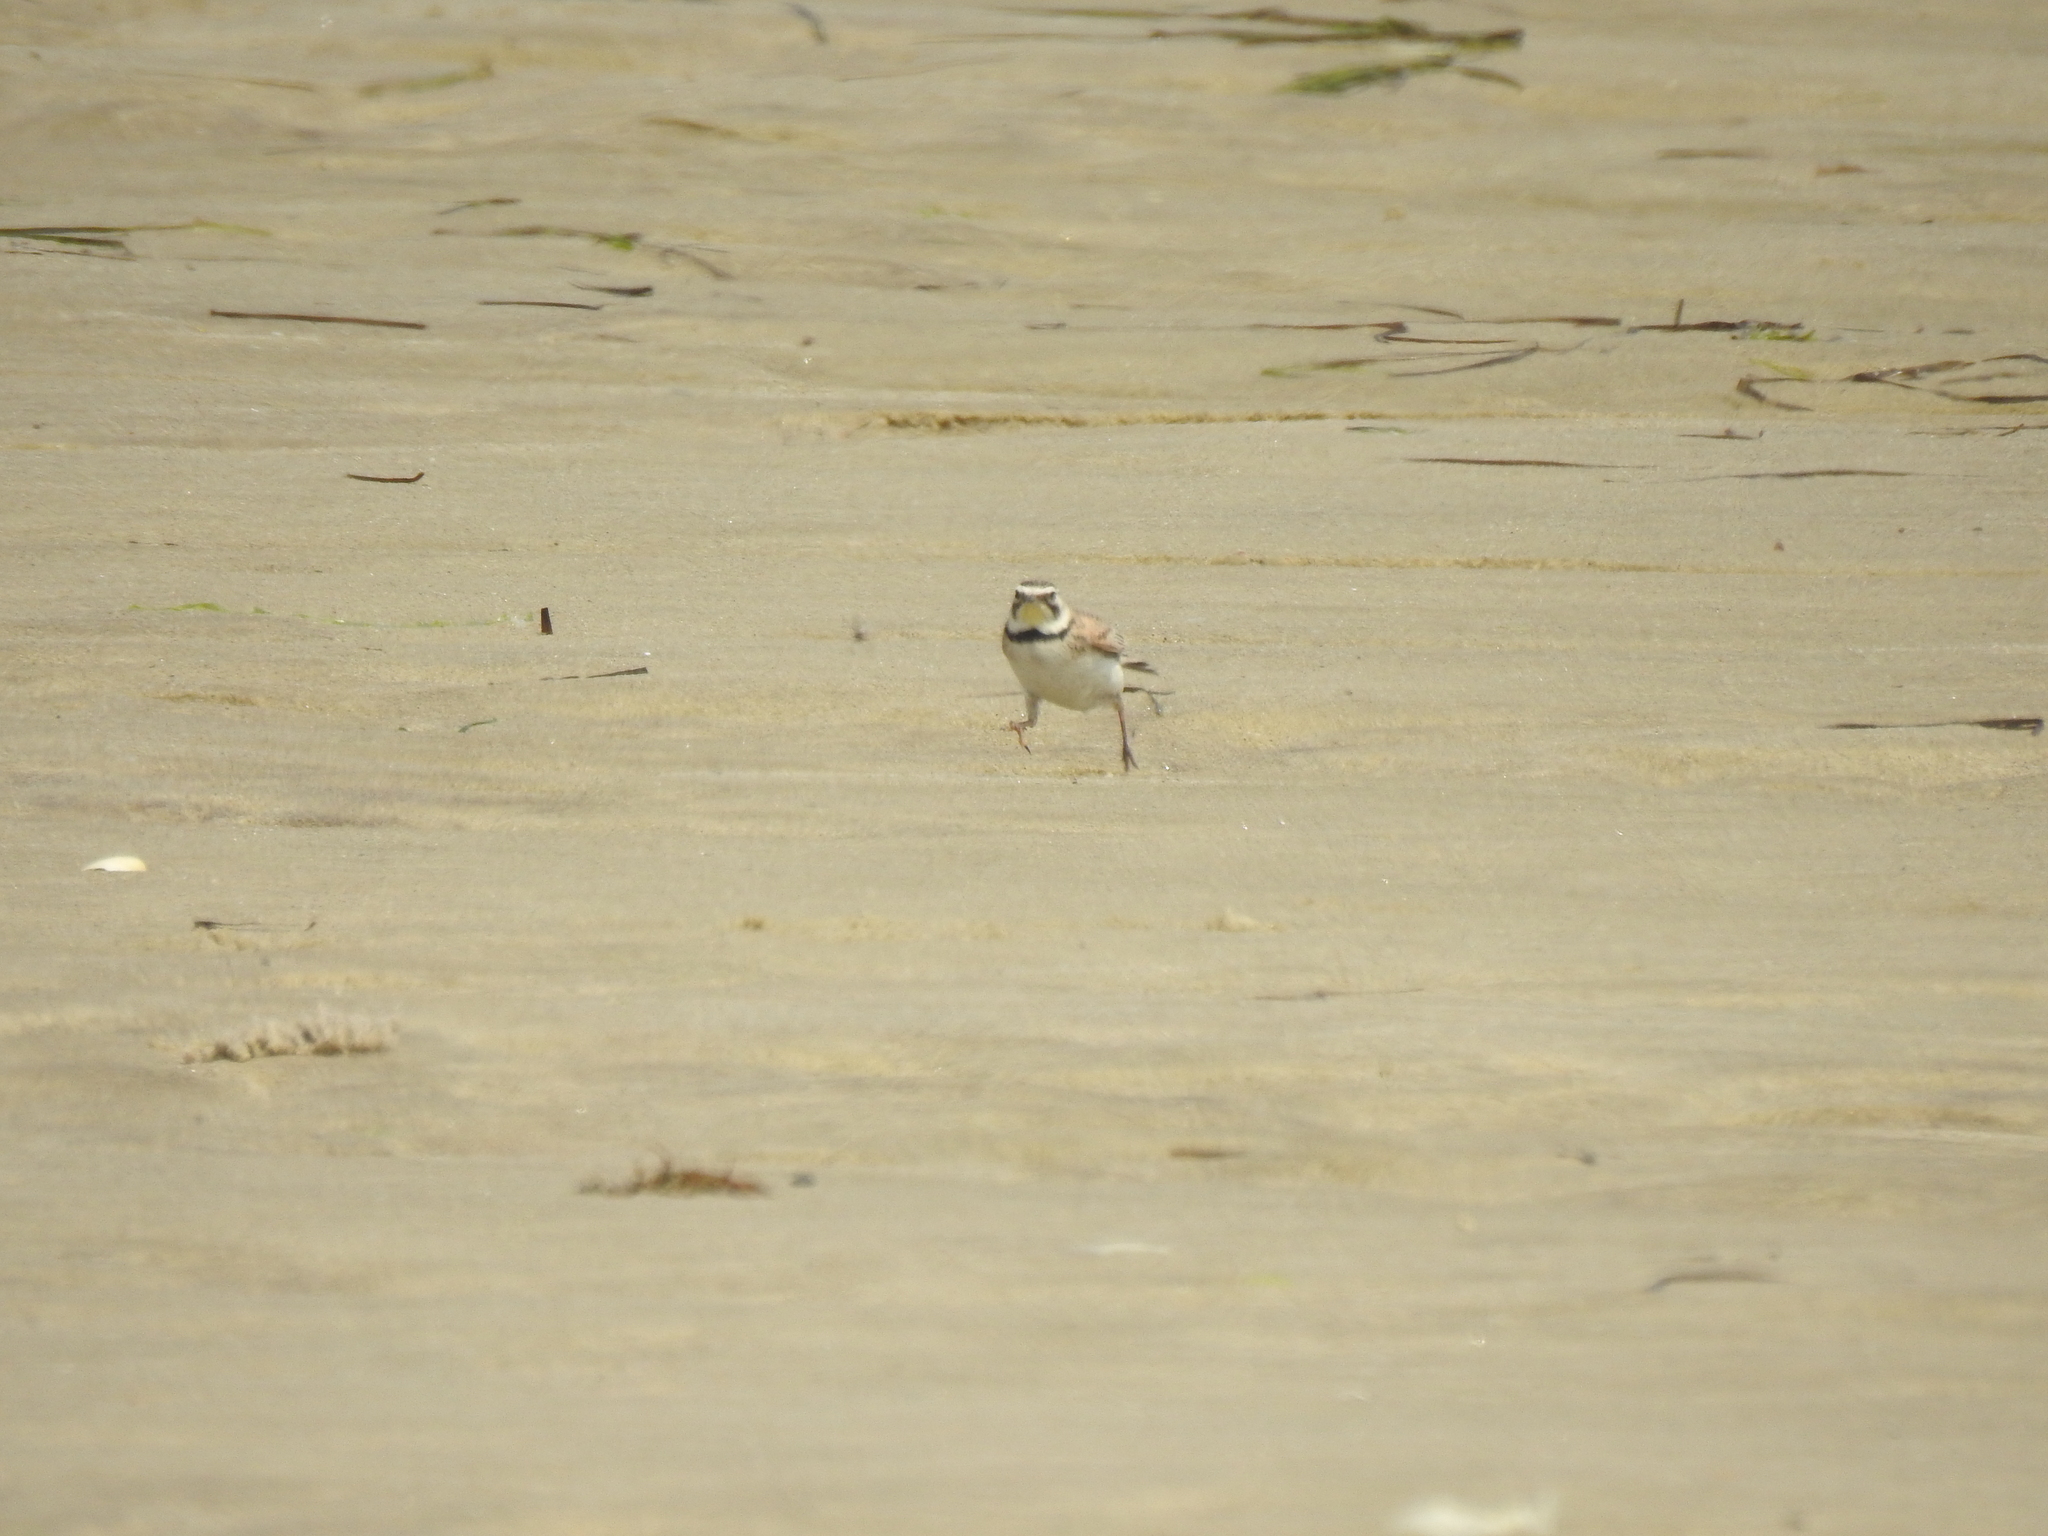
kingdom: Animalia
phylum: Chordata
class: Aves
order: Passeriformes
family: Alaudidae
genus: Eremophila
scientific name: Eremophila alpestris
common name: Horned lark
